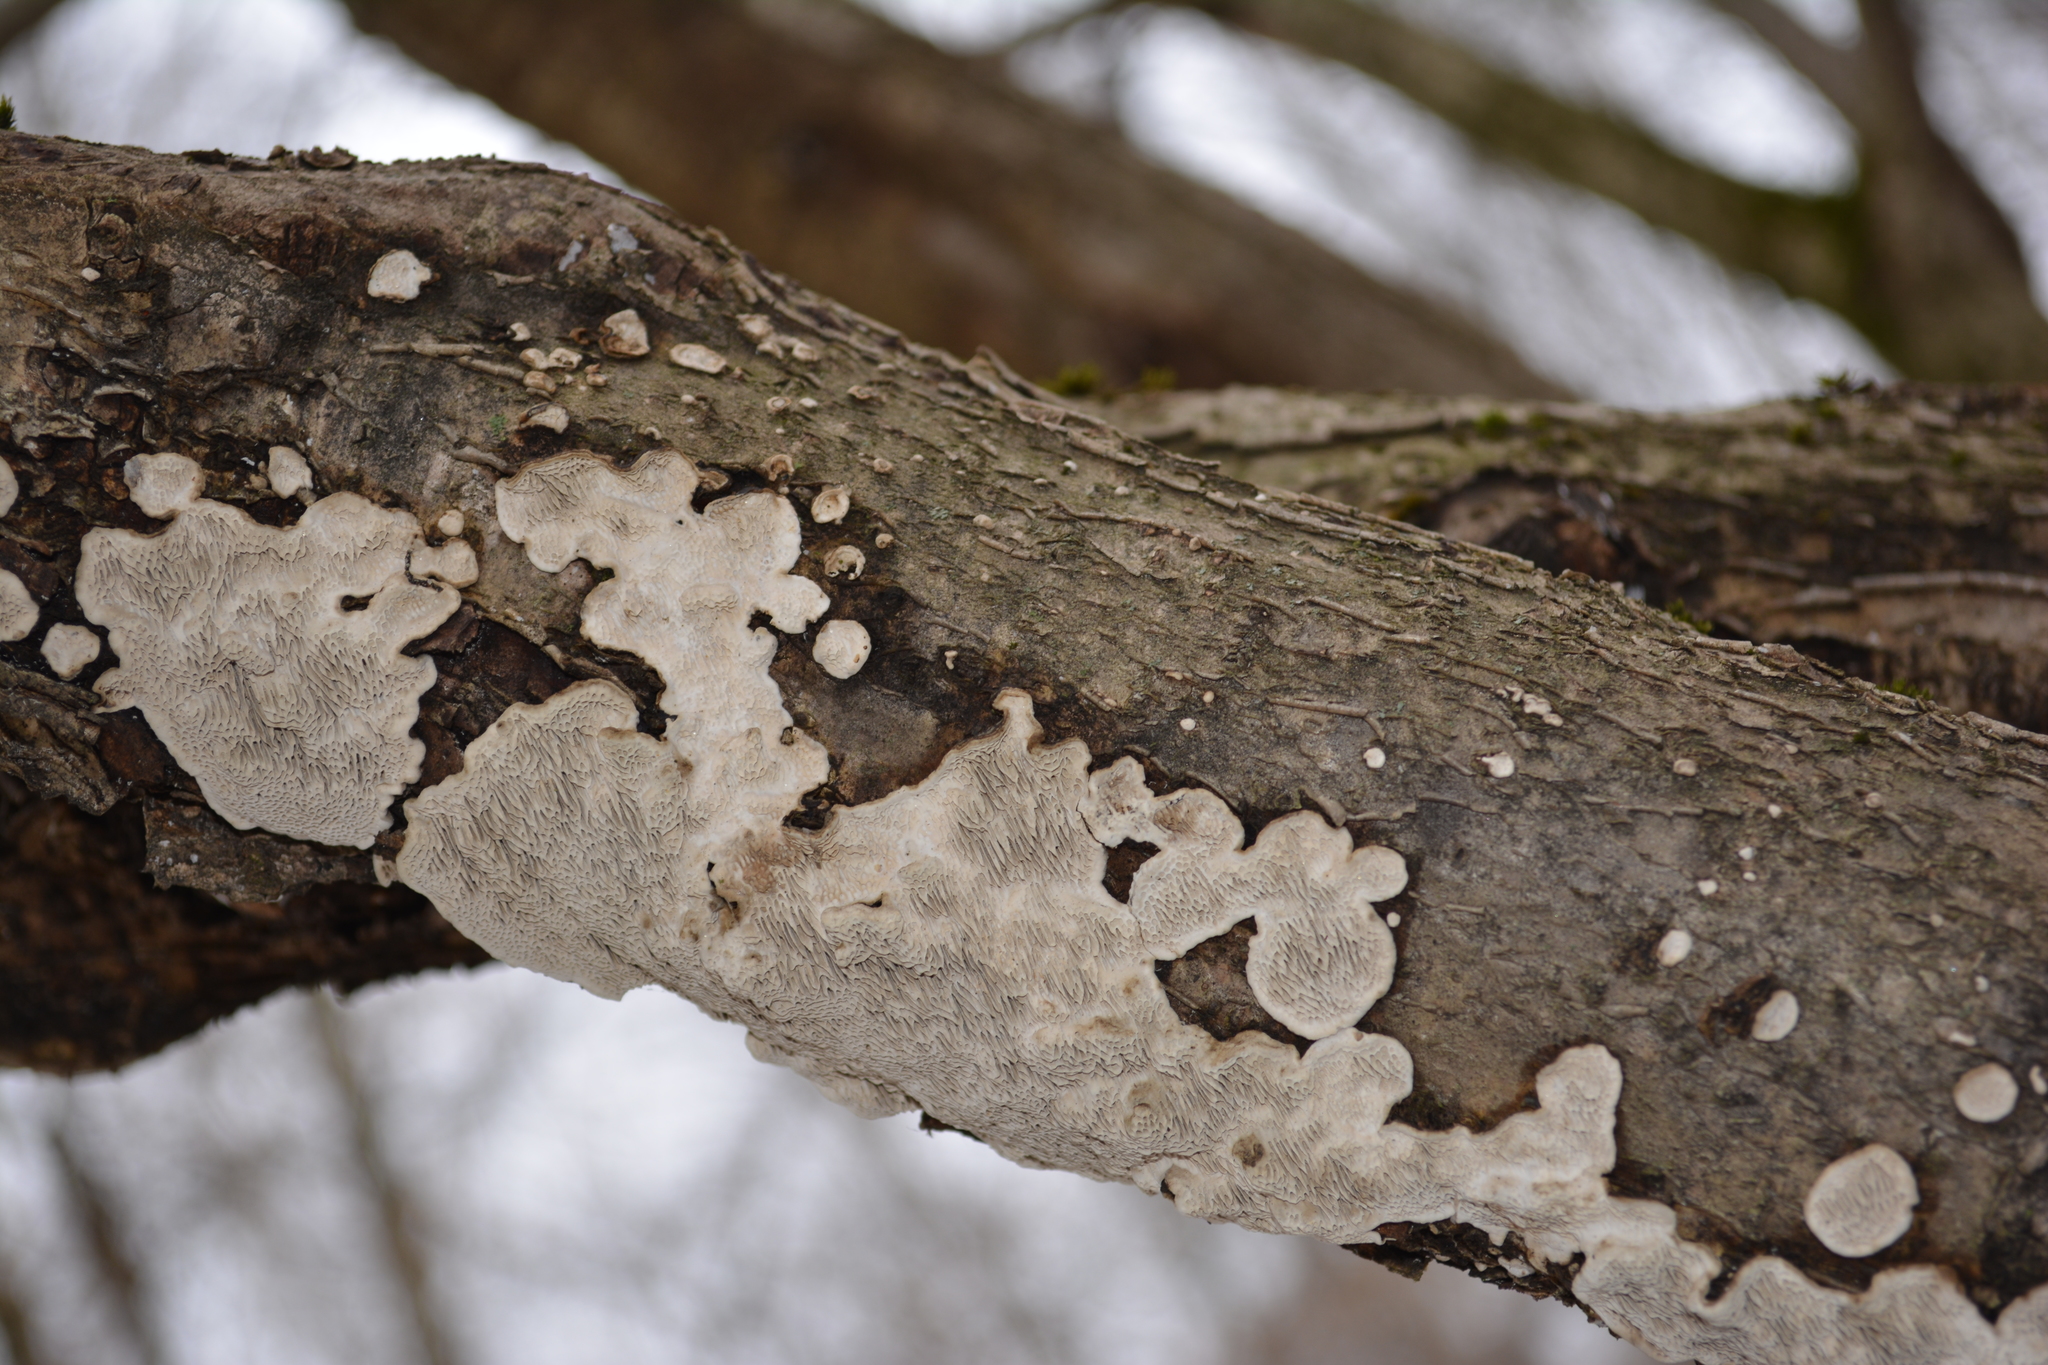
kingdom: Fungi
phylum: Basidiomycota
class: Agaricomycetes
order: Polyporales
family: Polyporaceae
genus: Podofomes
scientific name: Podofomes mollis
